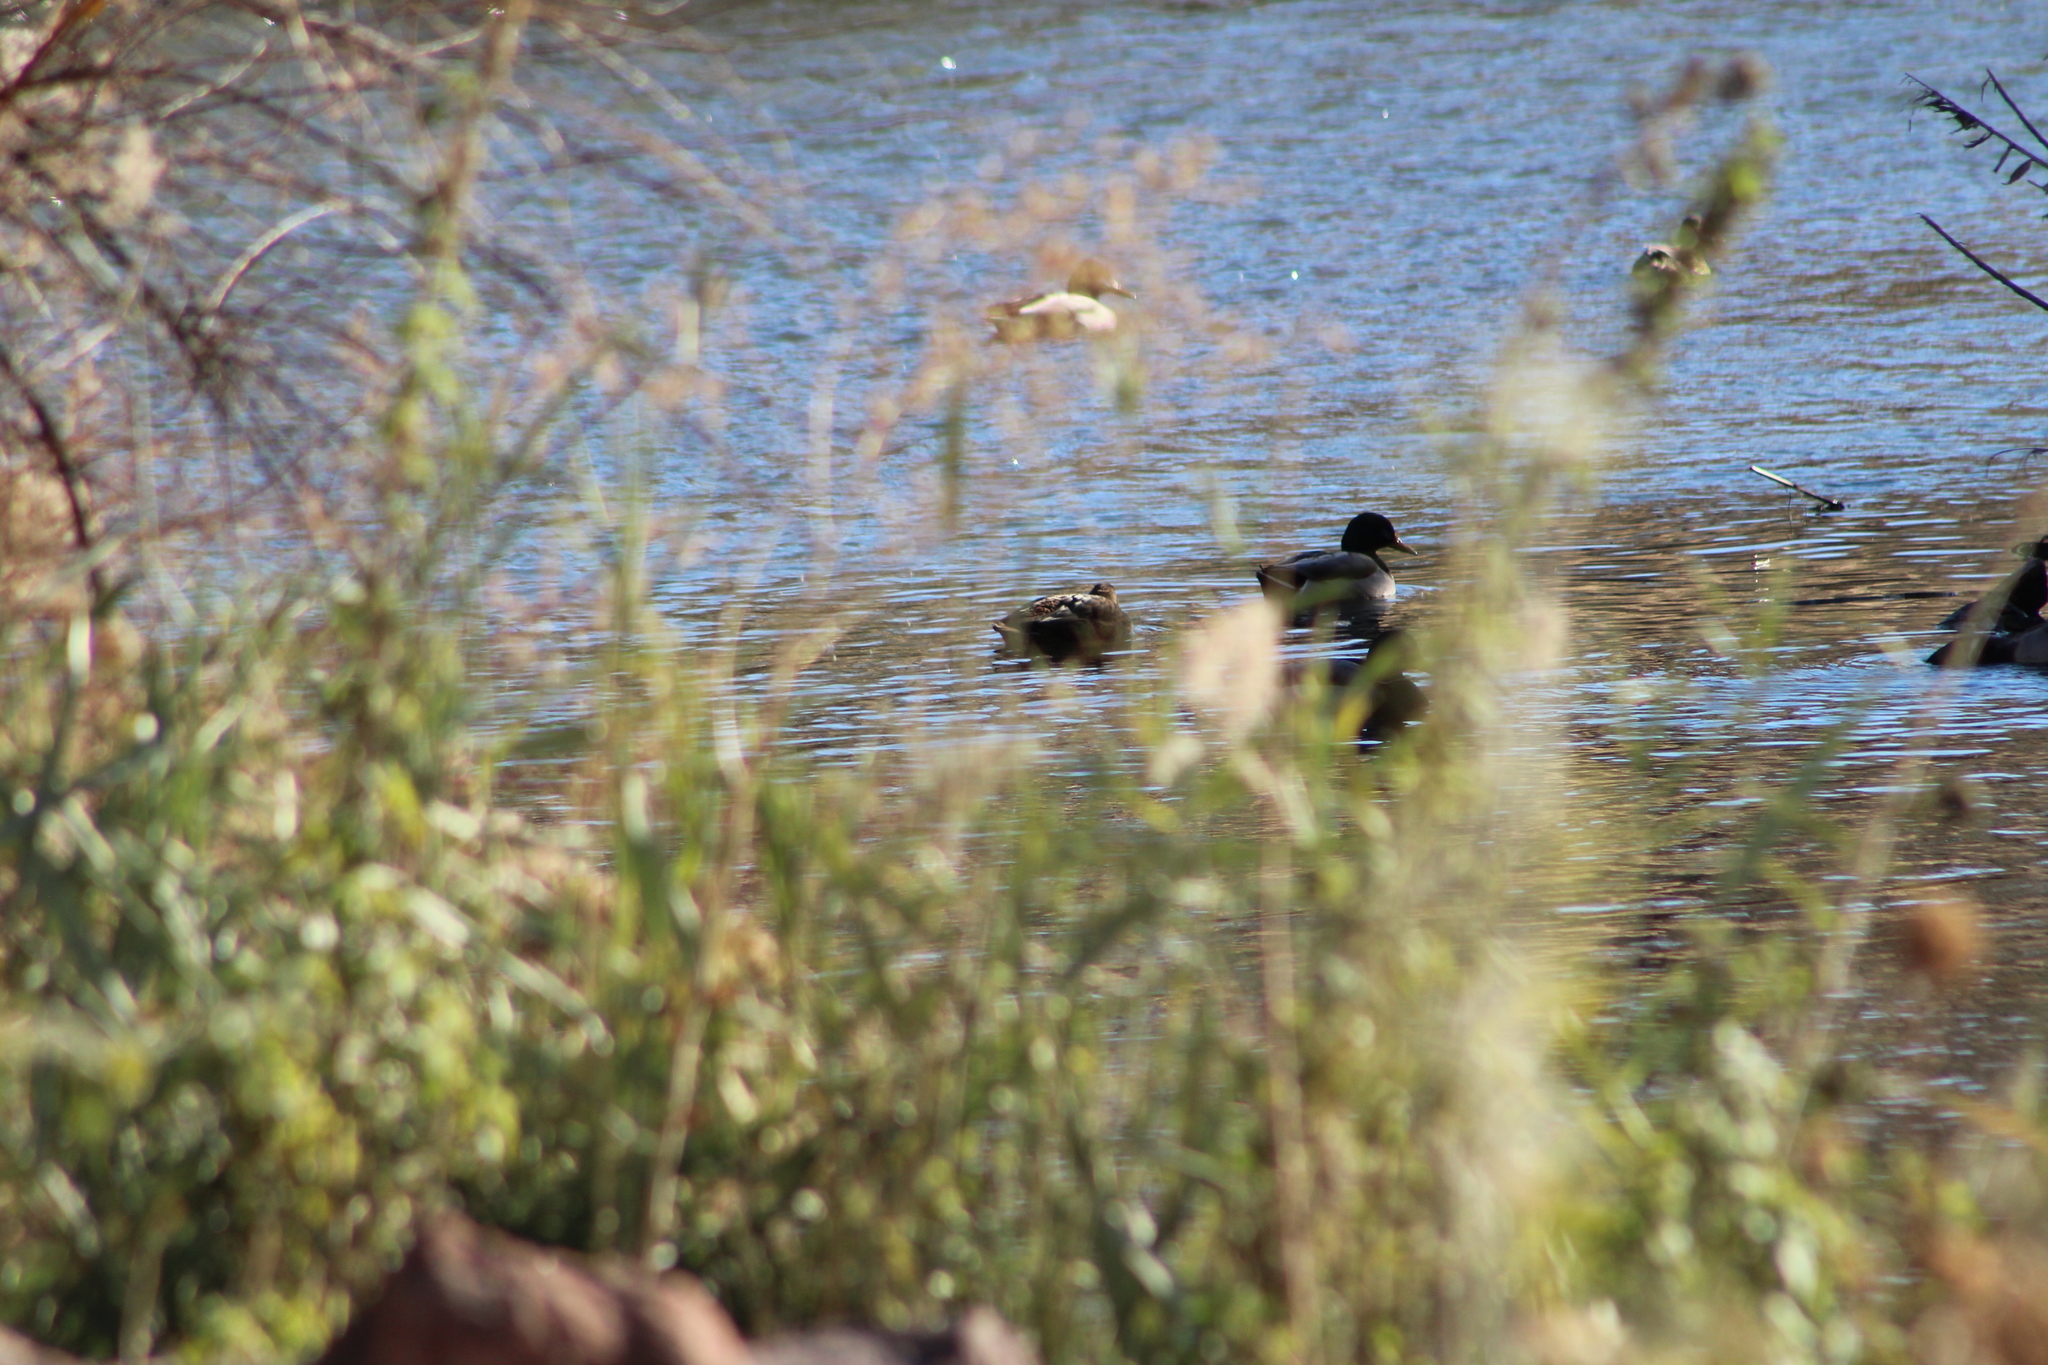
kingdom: Animalia
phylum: Chordata
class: Aves
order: Anseriformes
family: Anatidae
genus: Anas
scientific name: Anas platyrhynchos
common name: Mallard
